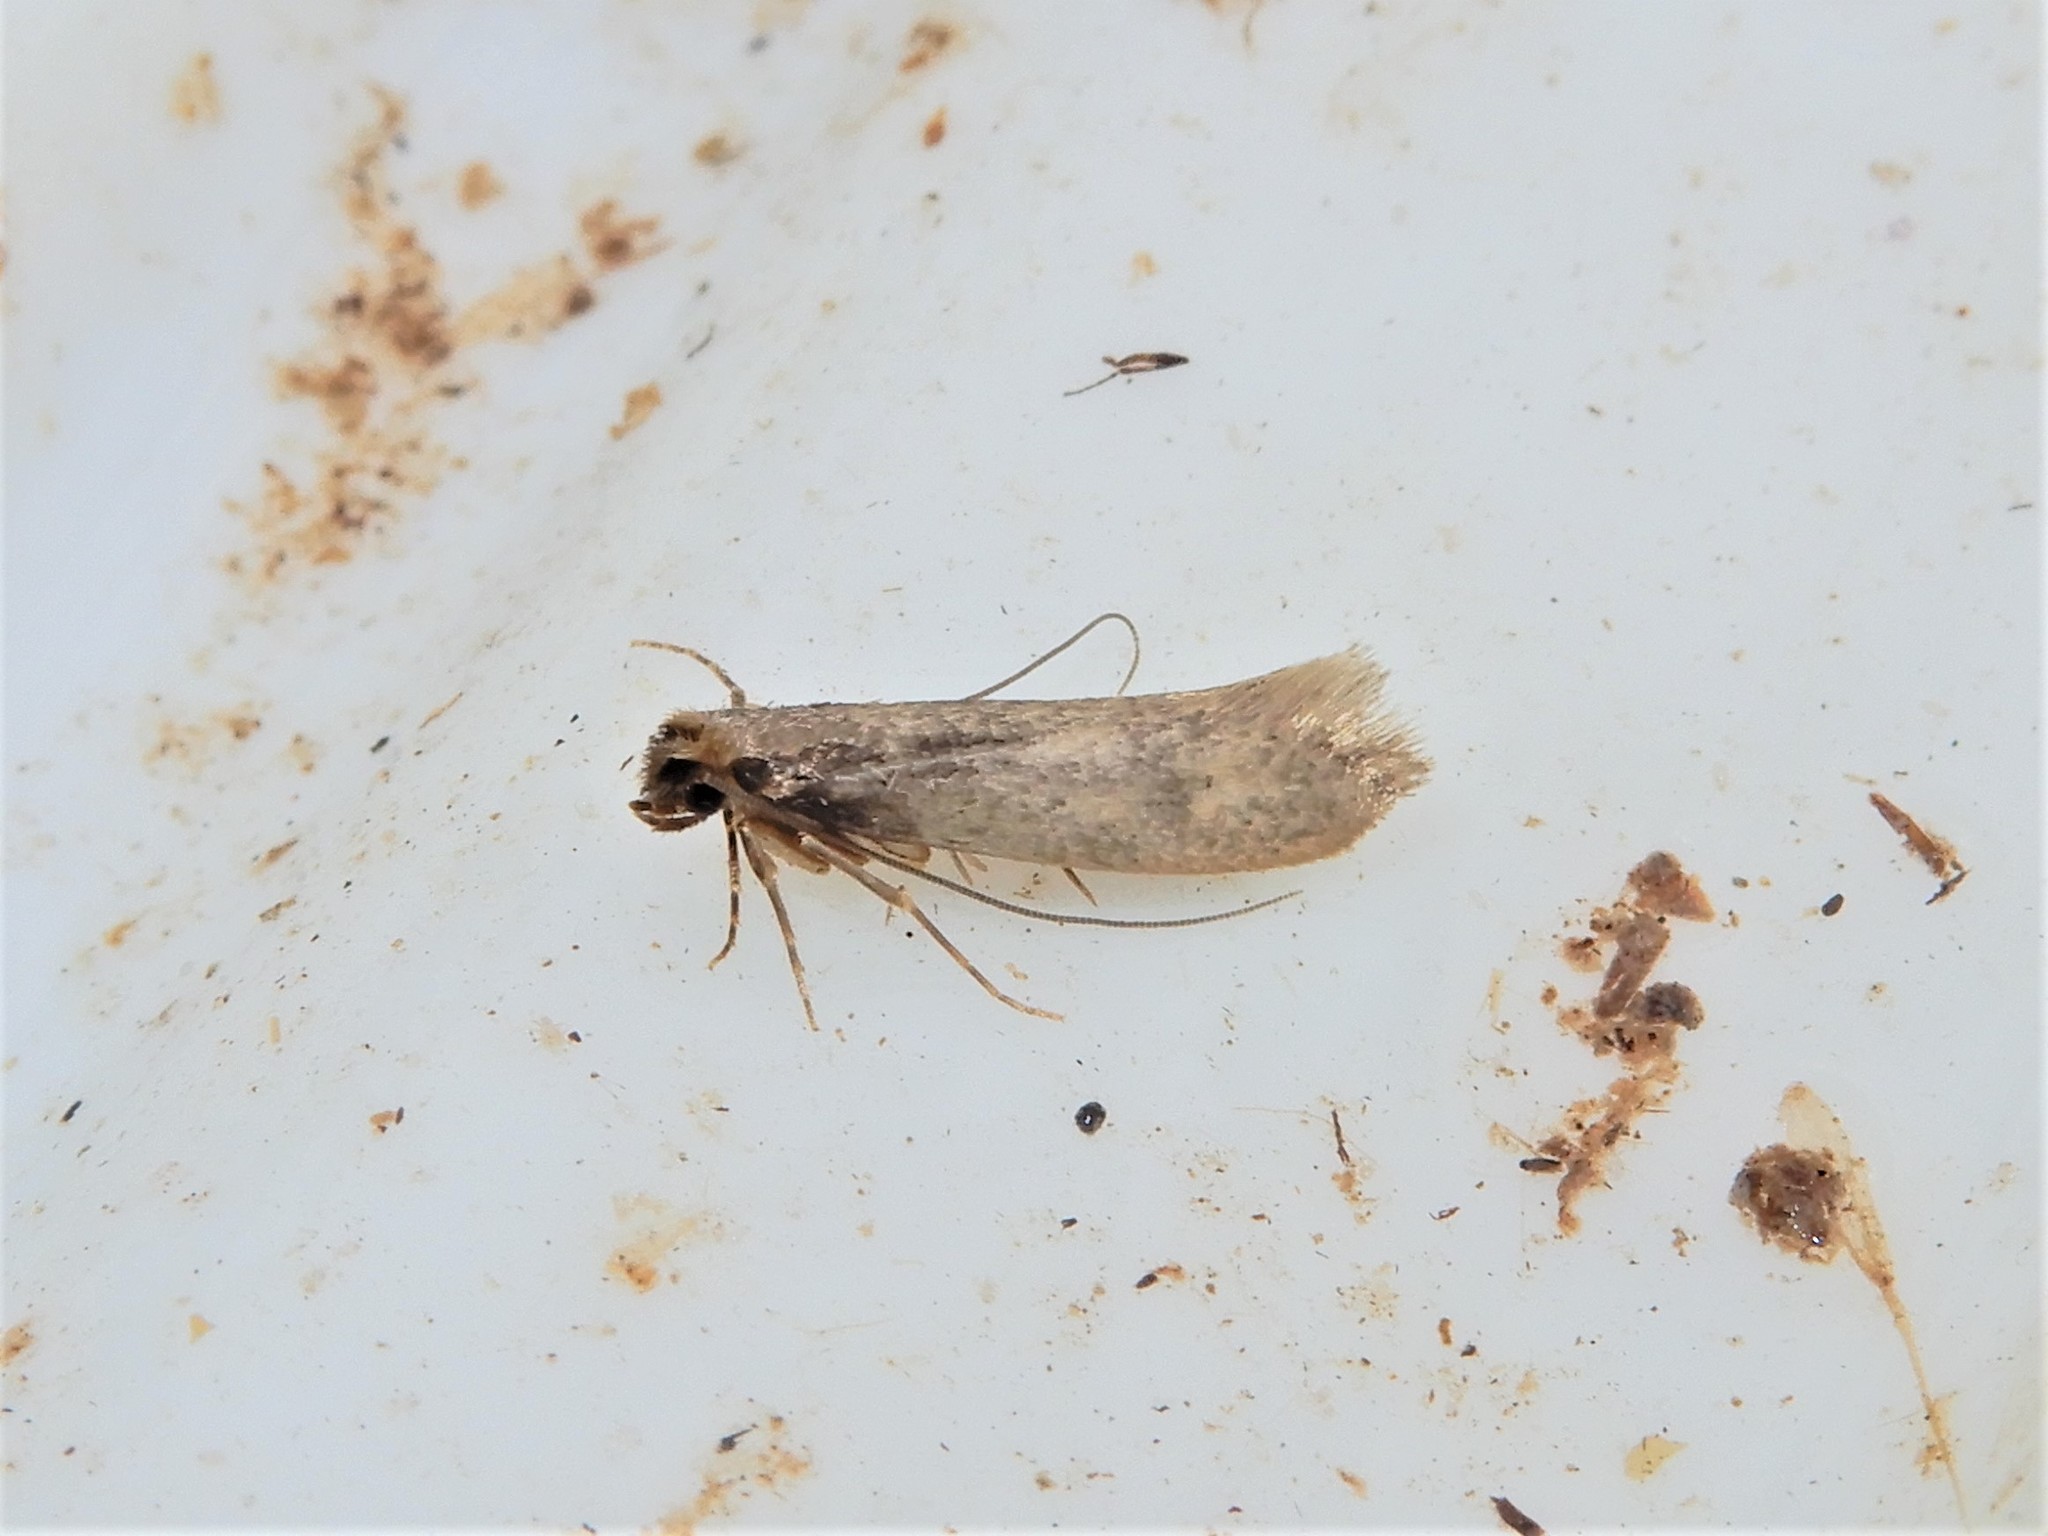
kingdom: Animalia
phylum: Arthropoda
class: Insecta
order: Lepidoptera
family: Tineidae
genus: Tinea
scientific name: Tinea pallescentella
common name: Large pale clothes moth
